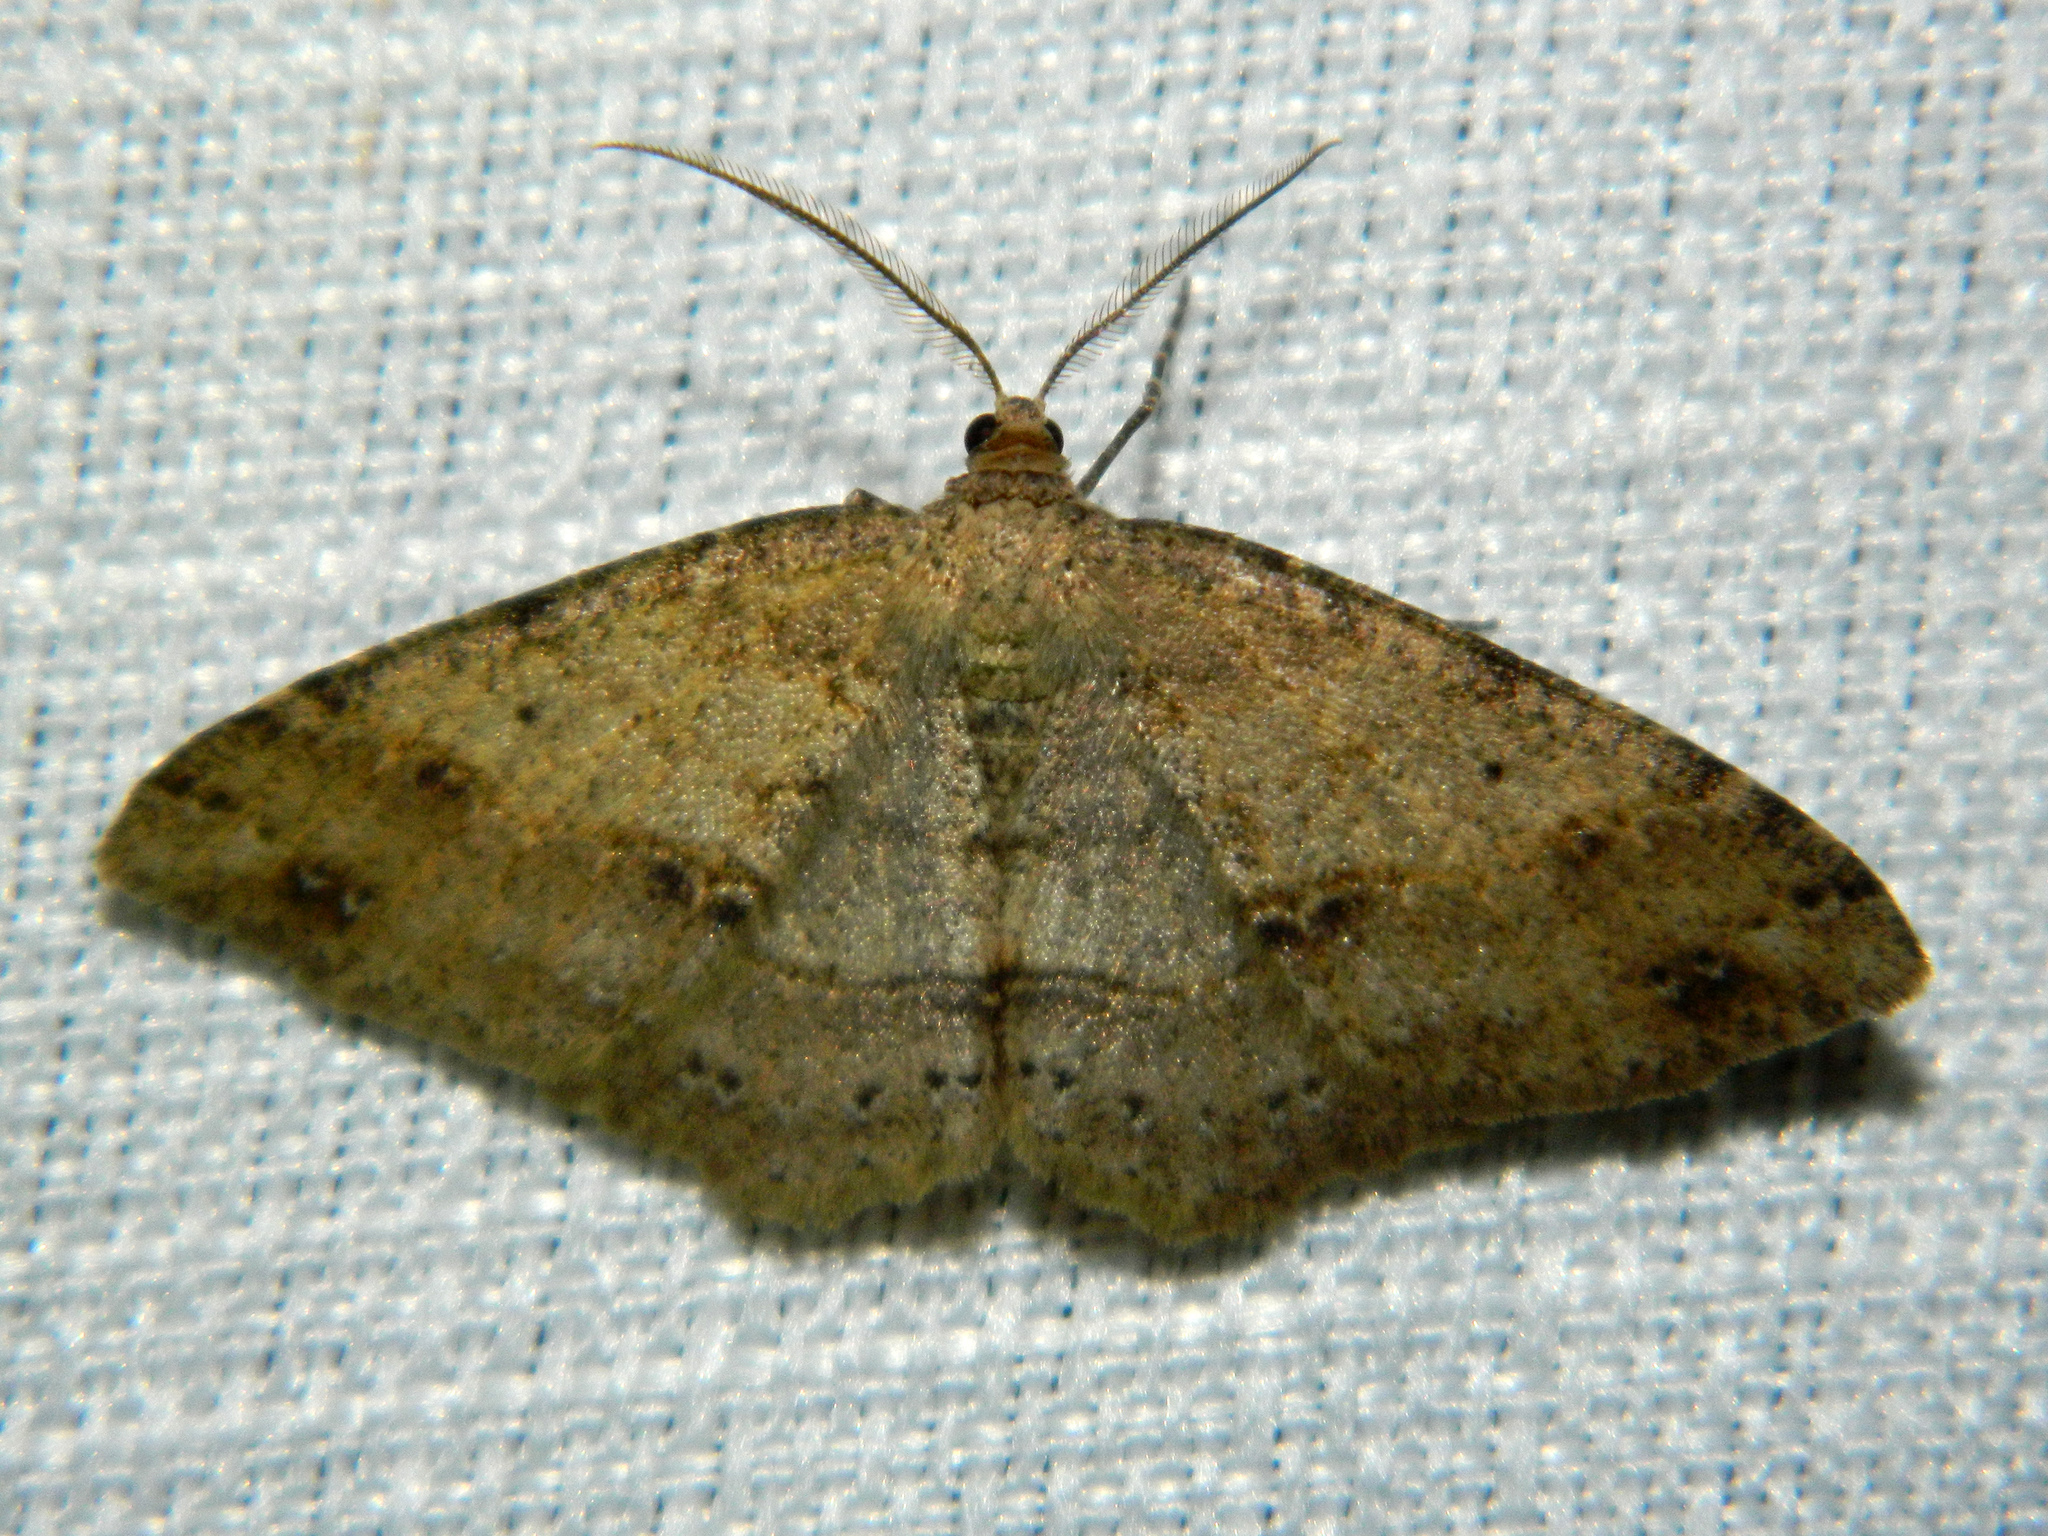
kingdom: Animalia
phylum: Arthropoda
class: Insecta
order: Lepidoptera
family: Geometridae
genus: Melanolophia
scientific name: Melanolophia signataria
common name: Signate melanolophia
